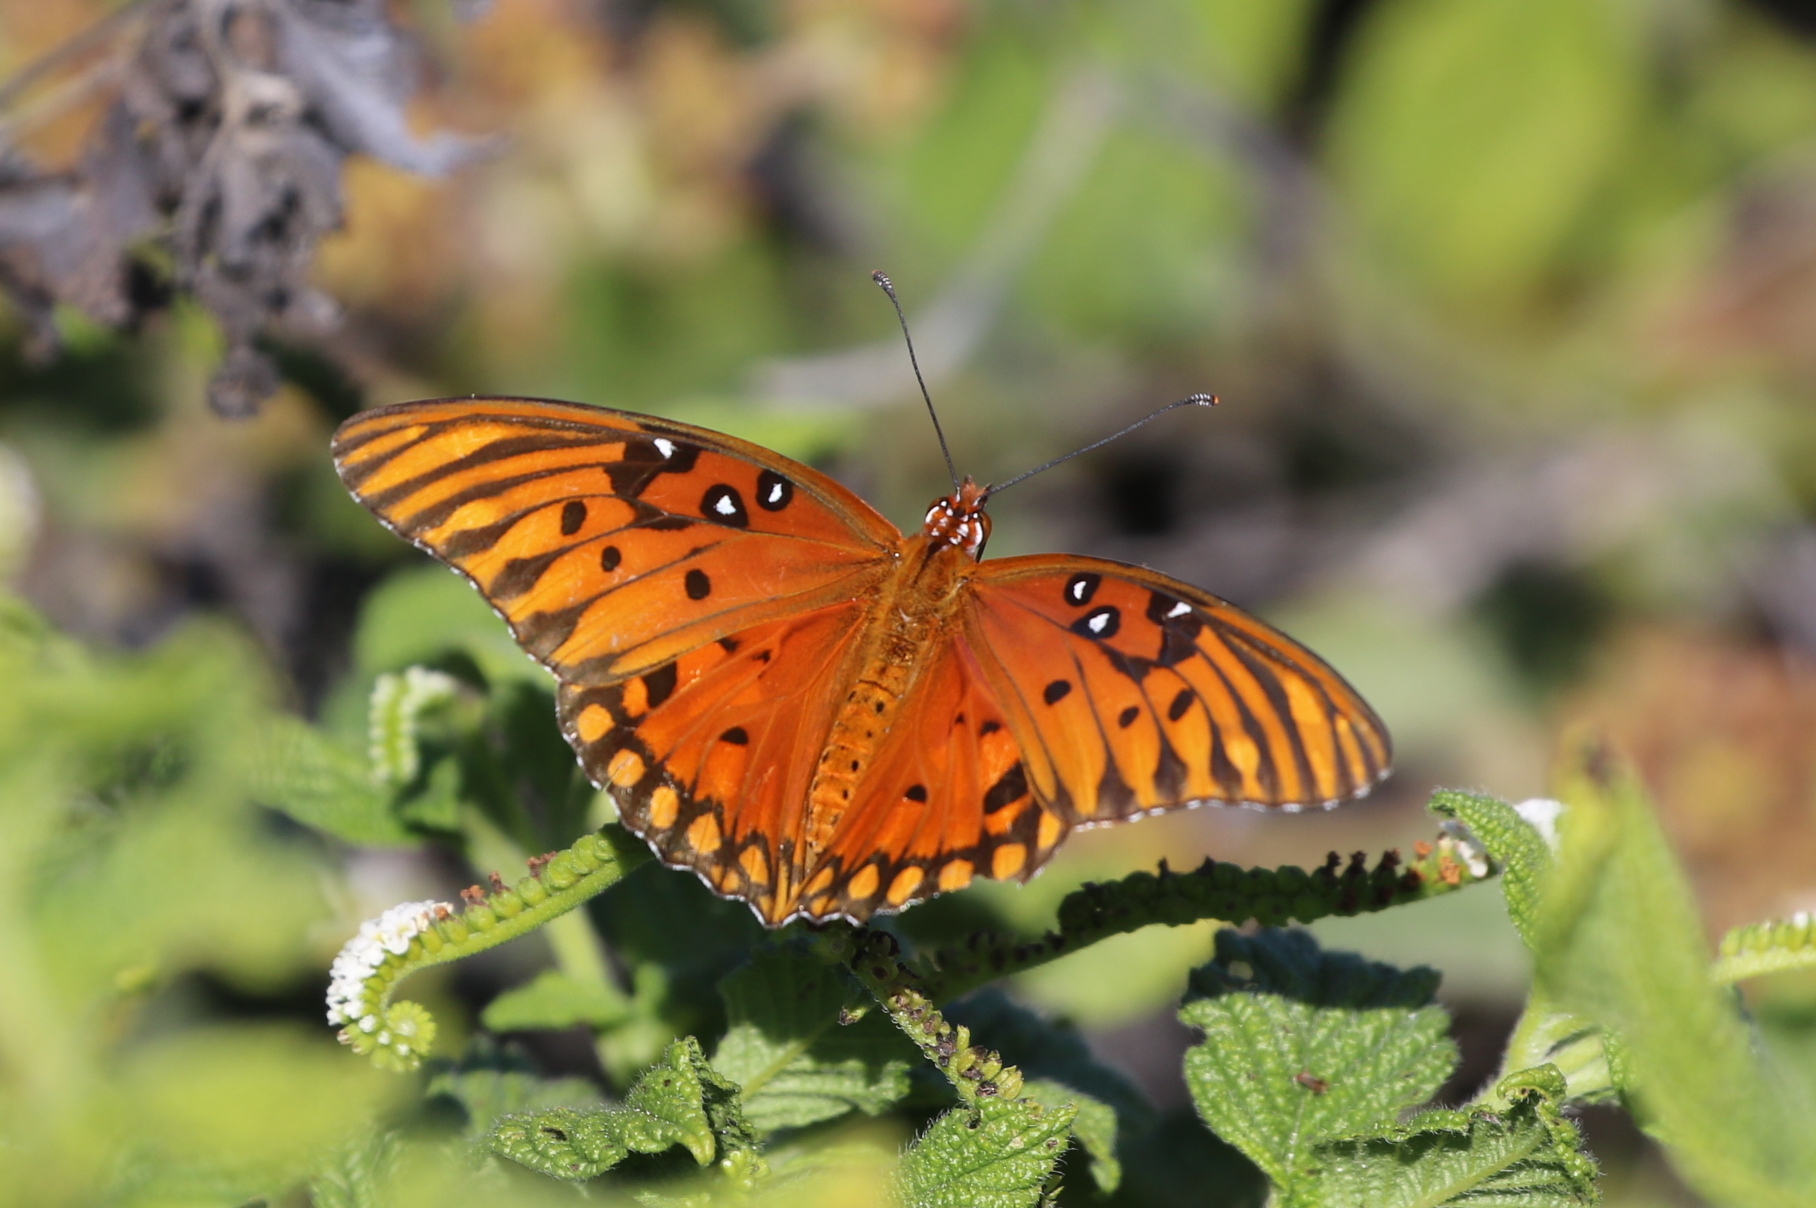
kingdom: Animalia
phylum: Arthropoda
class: Insecta
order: Lepidoptera
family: Nymphalidae
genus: Dione
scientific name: Dione vanillae
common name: Gulf fritillary
